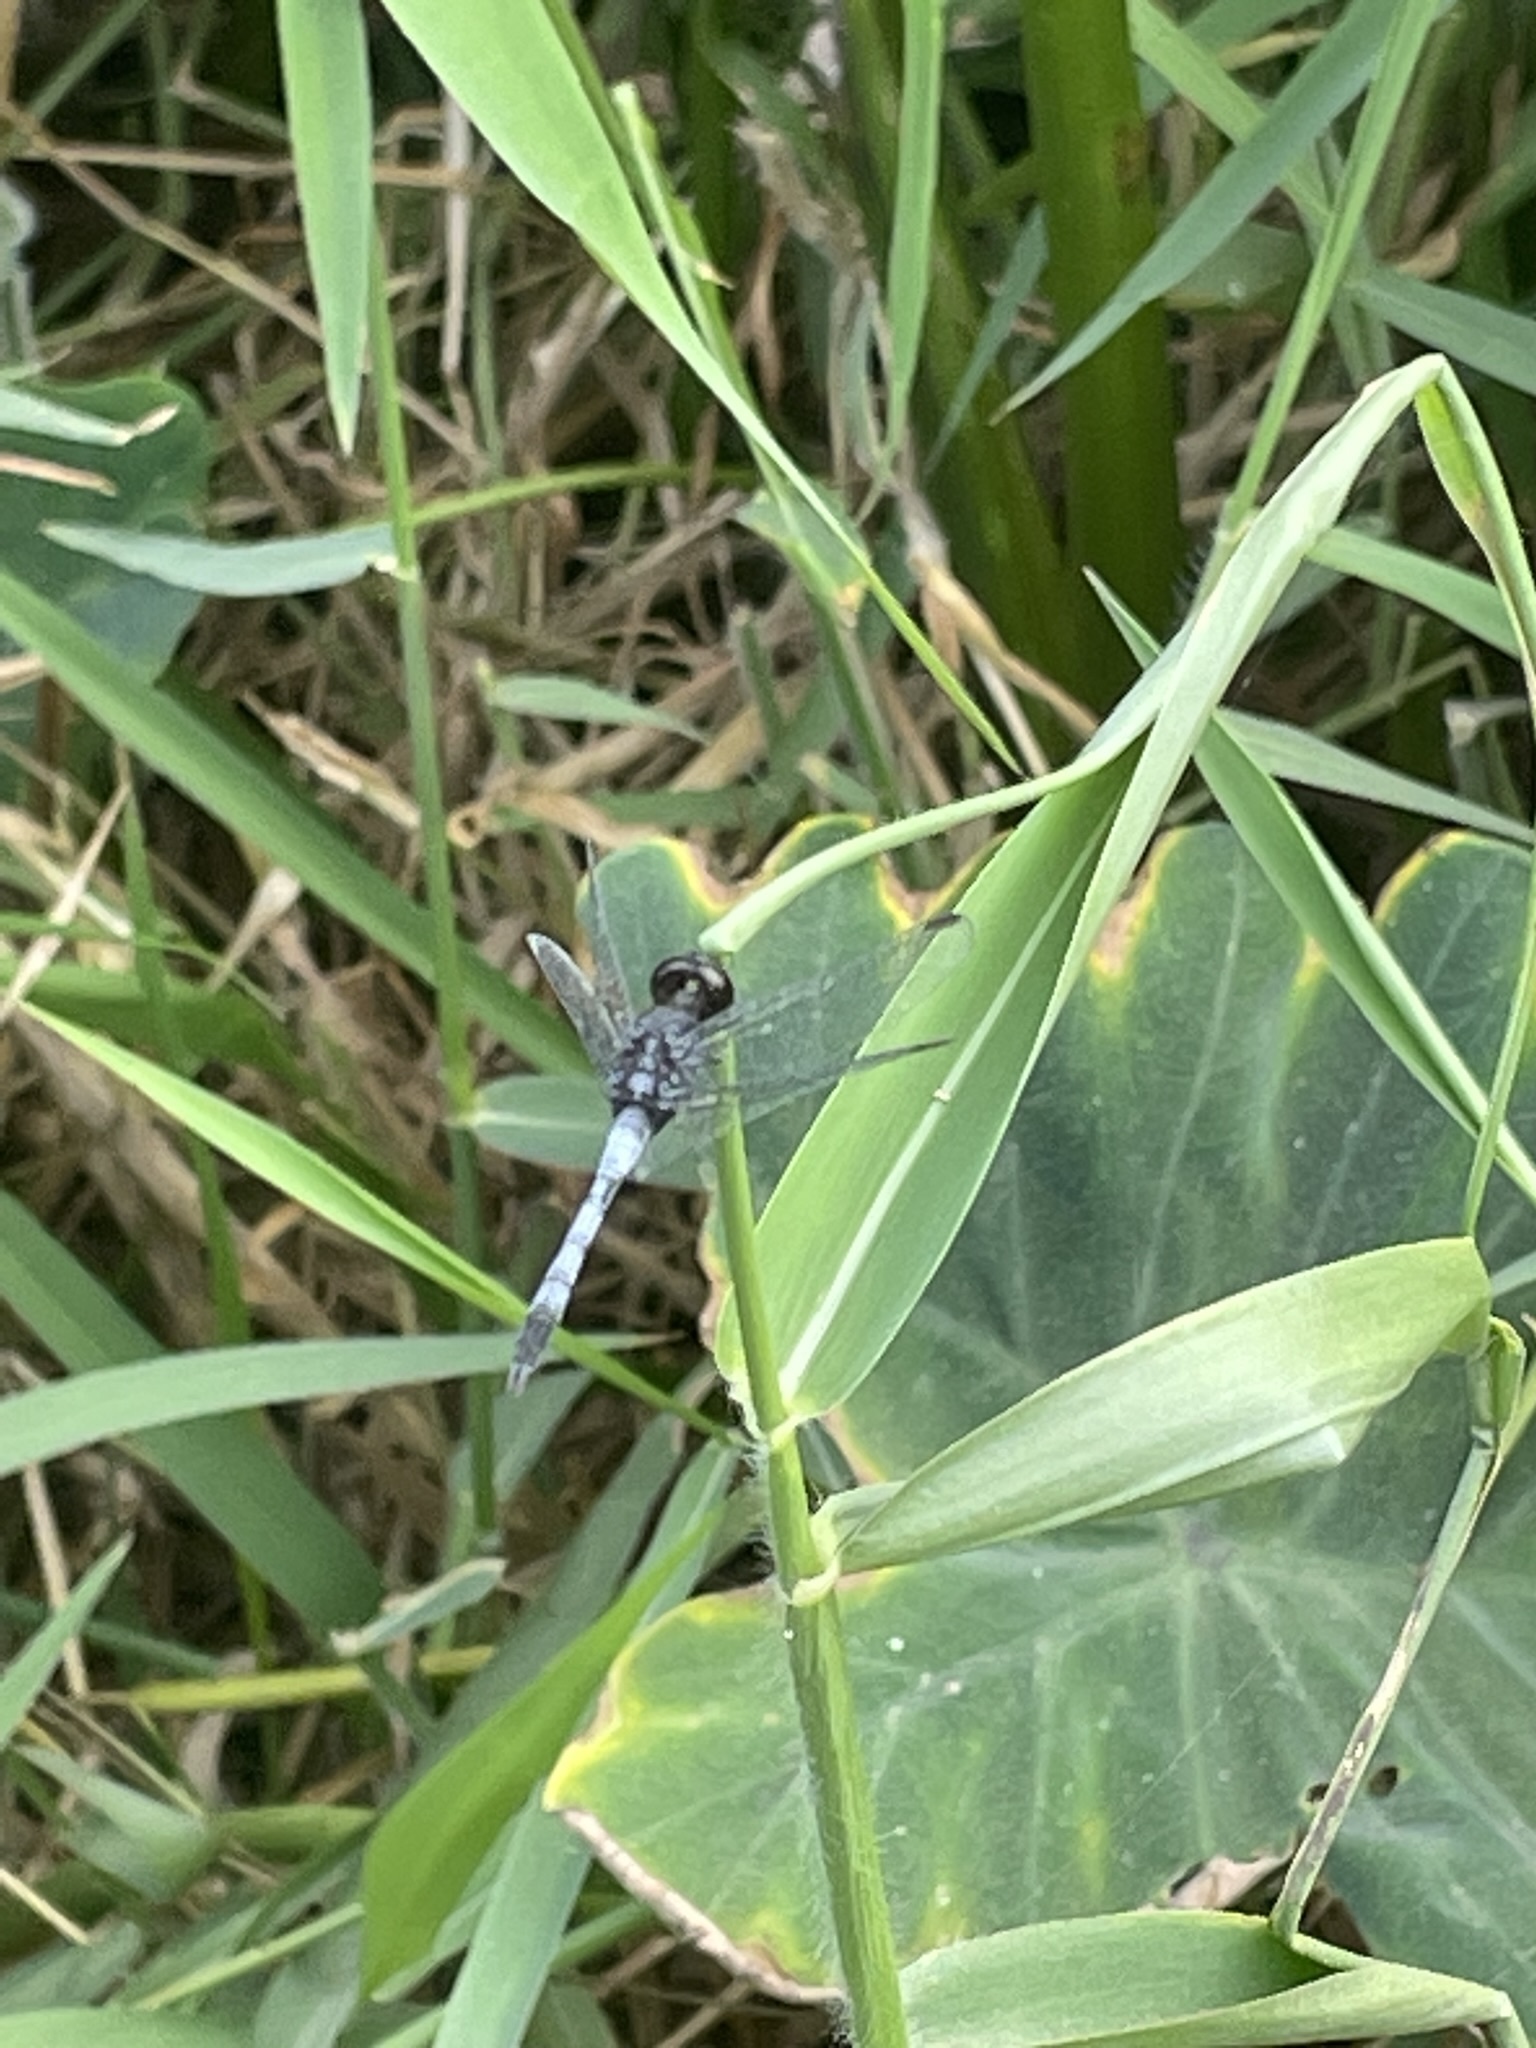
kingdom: Animalia
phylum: Arthropoda
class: Insecta
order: Odonata
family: Libellulidae
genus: Erythrodiplax
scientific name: Erythrodiplax cleopatra
